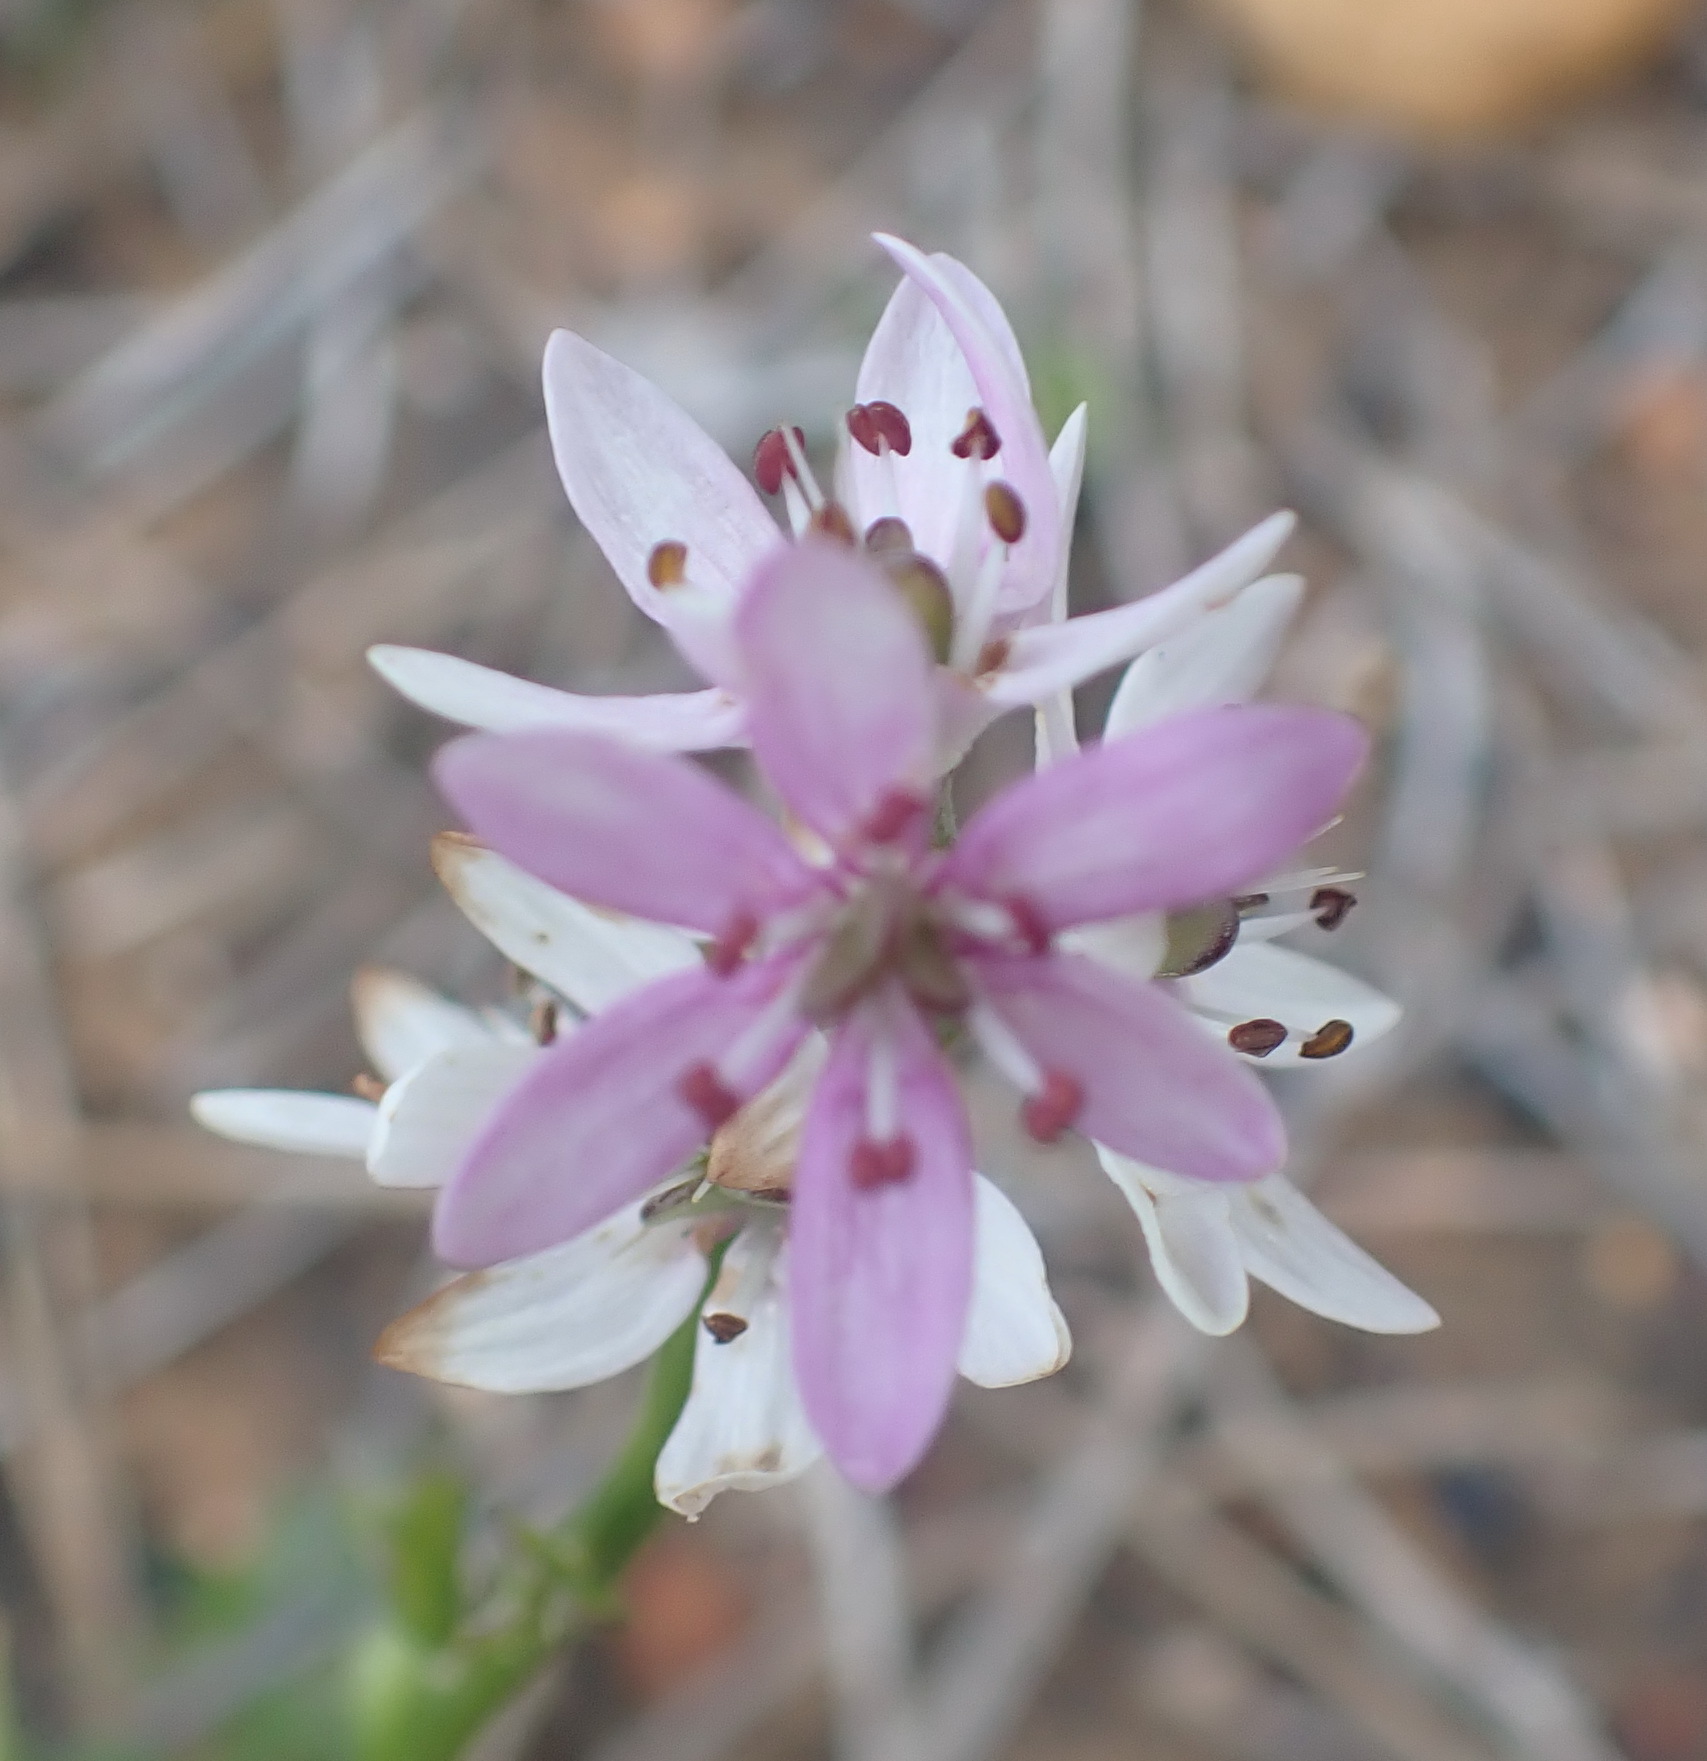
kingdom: Plantae
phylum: Tracheophyta
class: Liliopsida
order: Liliales
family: Colchicaceae
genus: Wurmbea
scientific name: Wurmbea punctata
